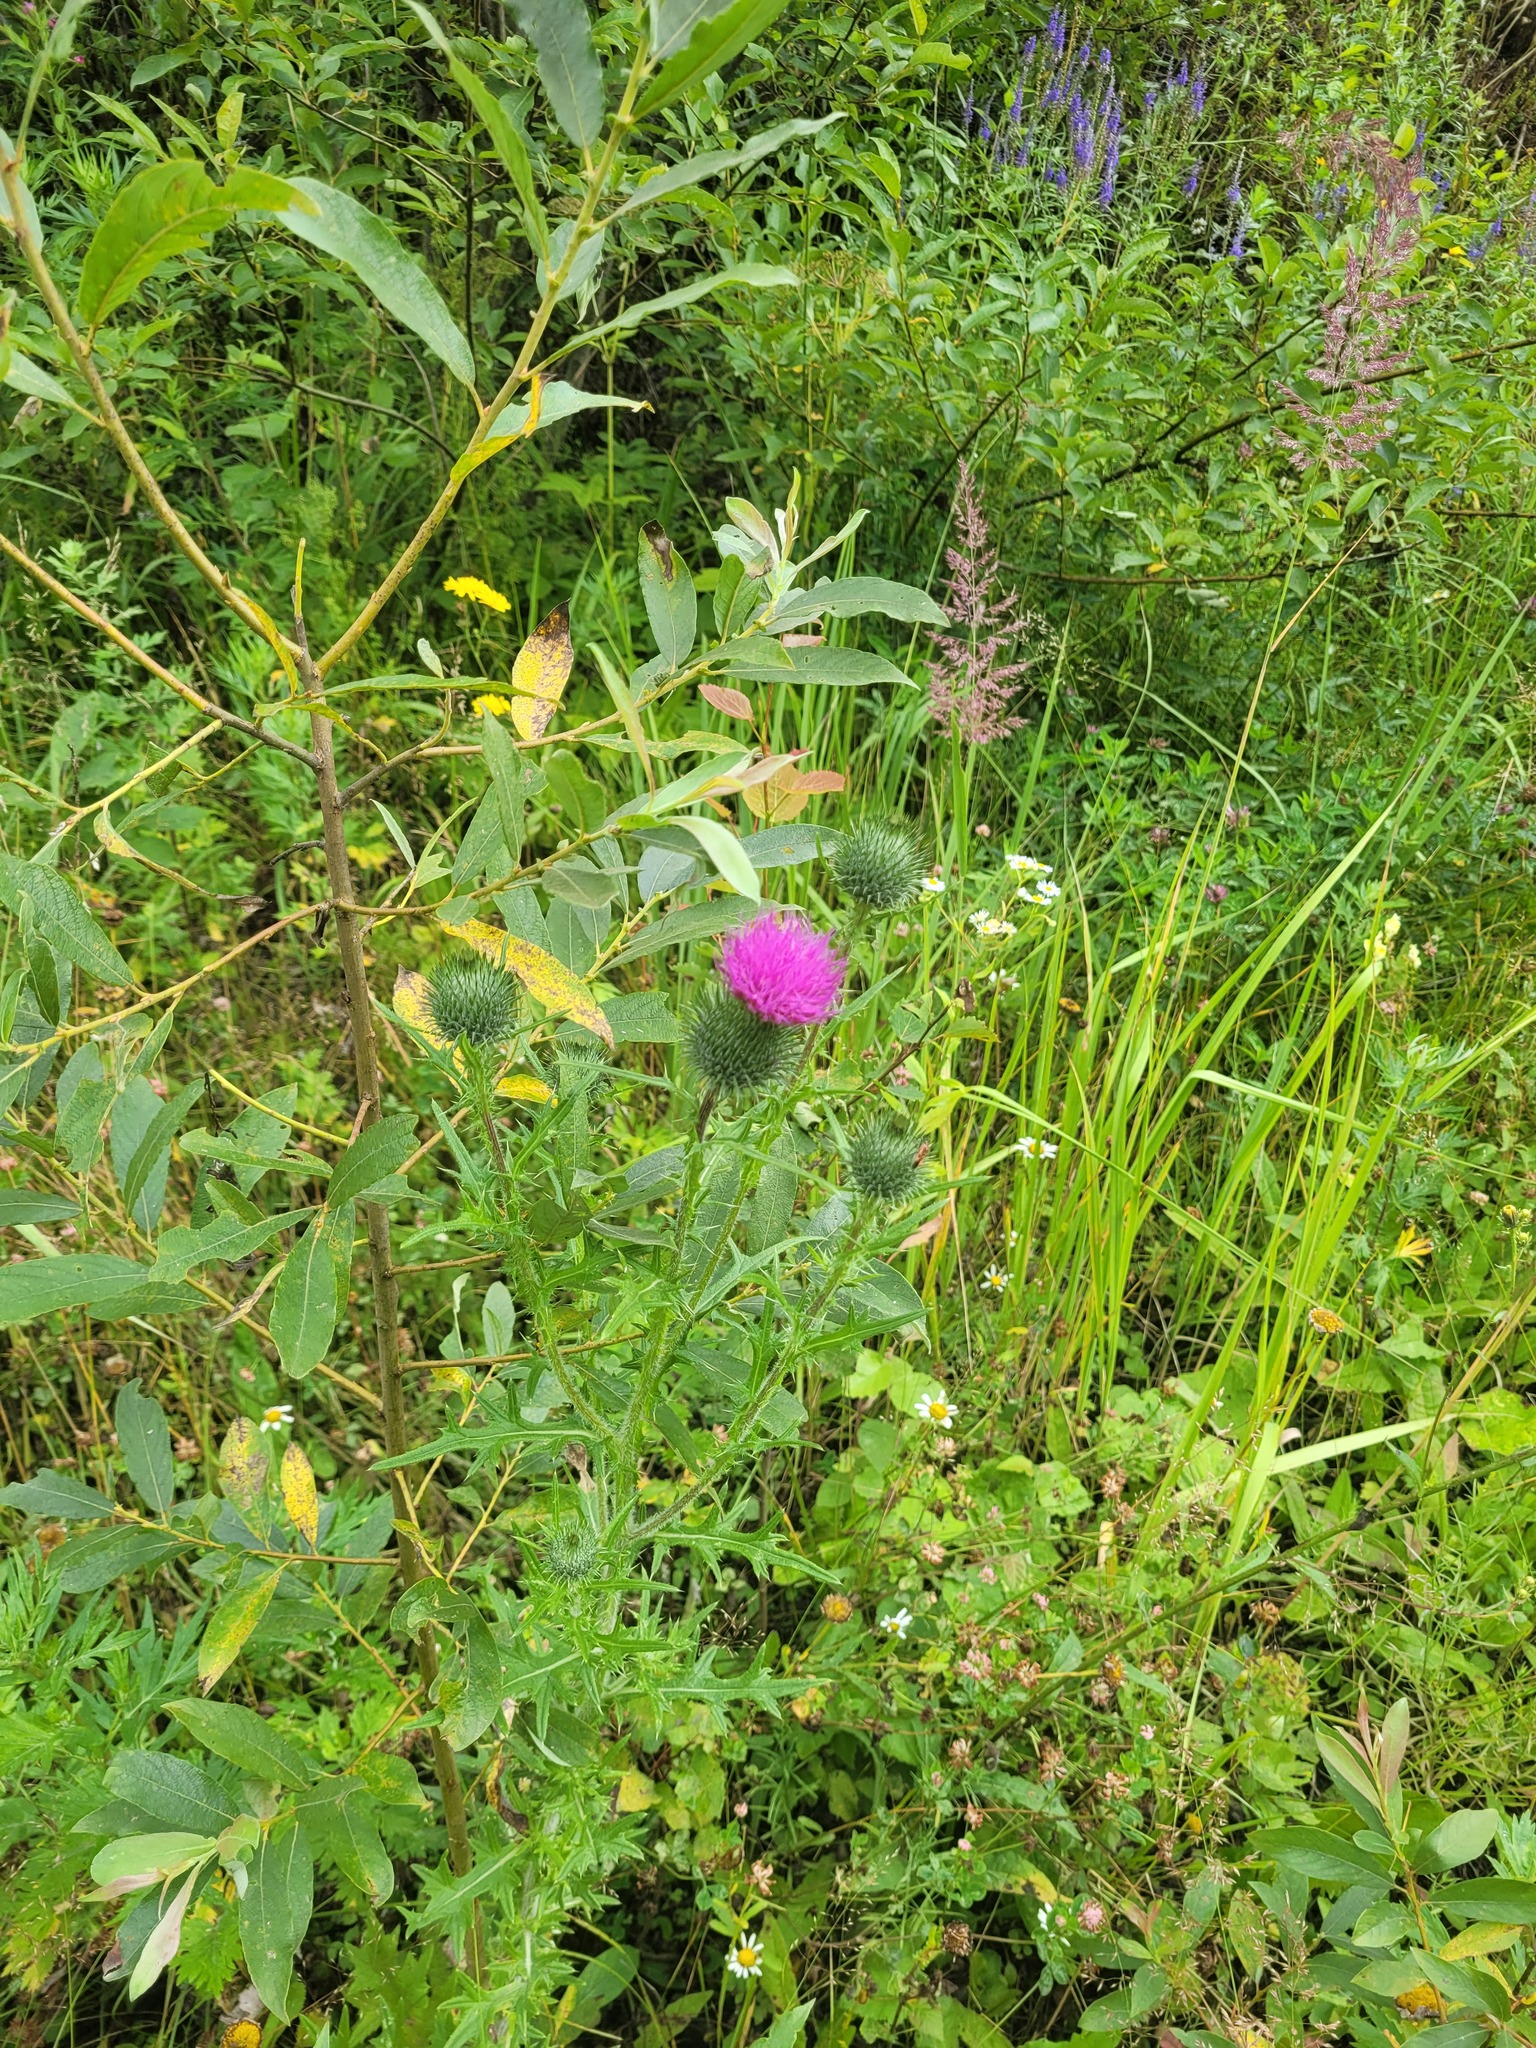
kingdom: Plantae
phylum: Tracheophyta
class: Magnoliopsida
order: Asterales
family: Asteraceae
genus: Cirsium
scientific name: Cirsium vulgare
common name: Bull thistle
